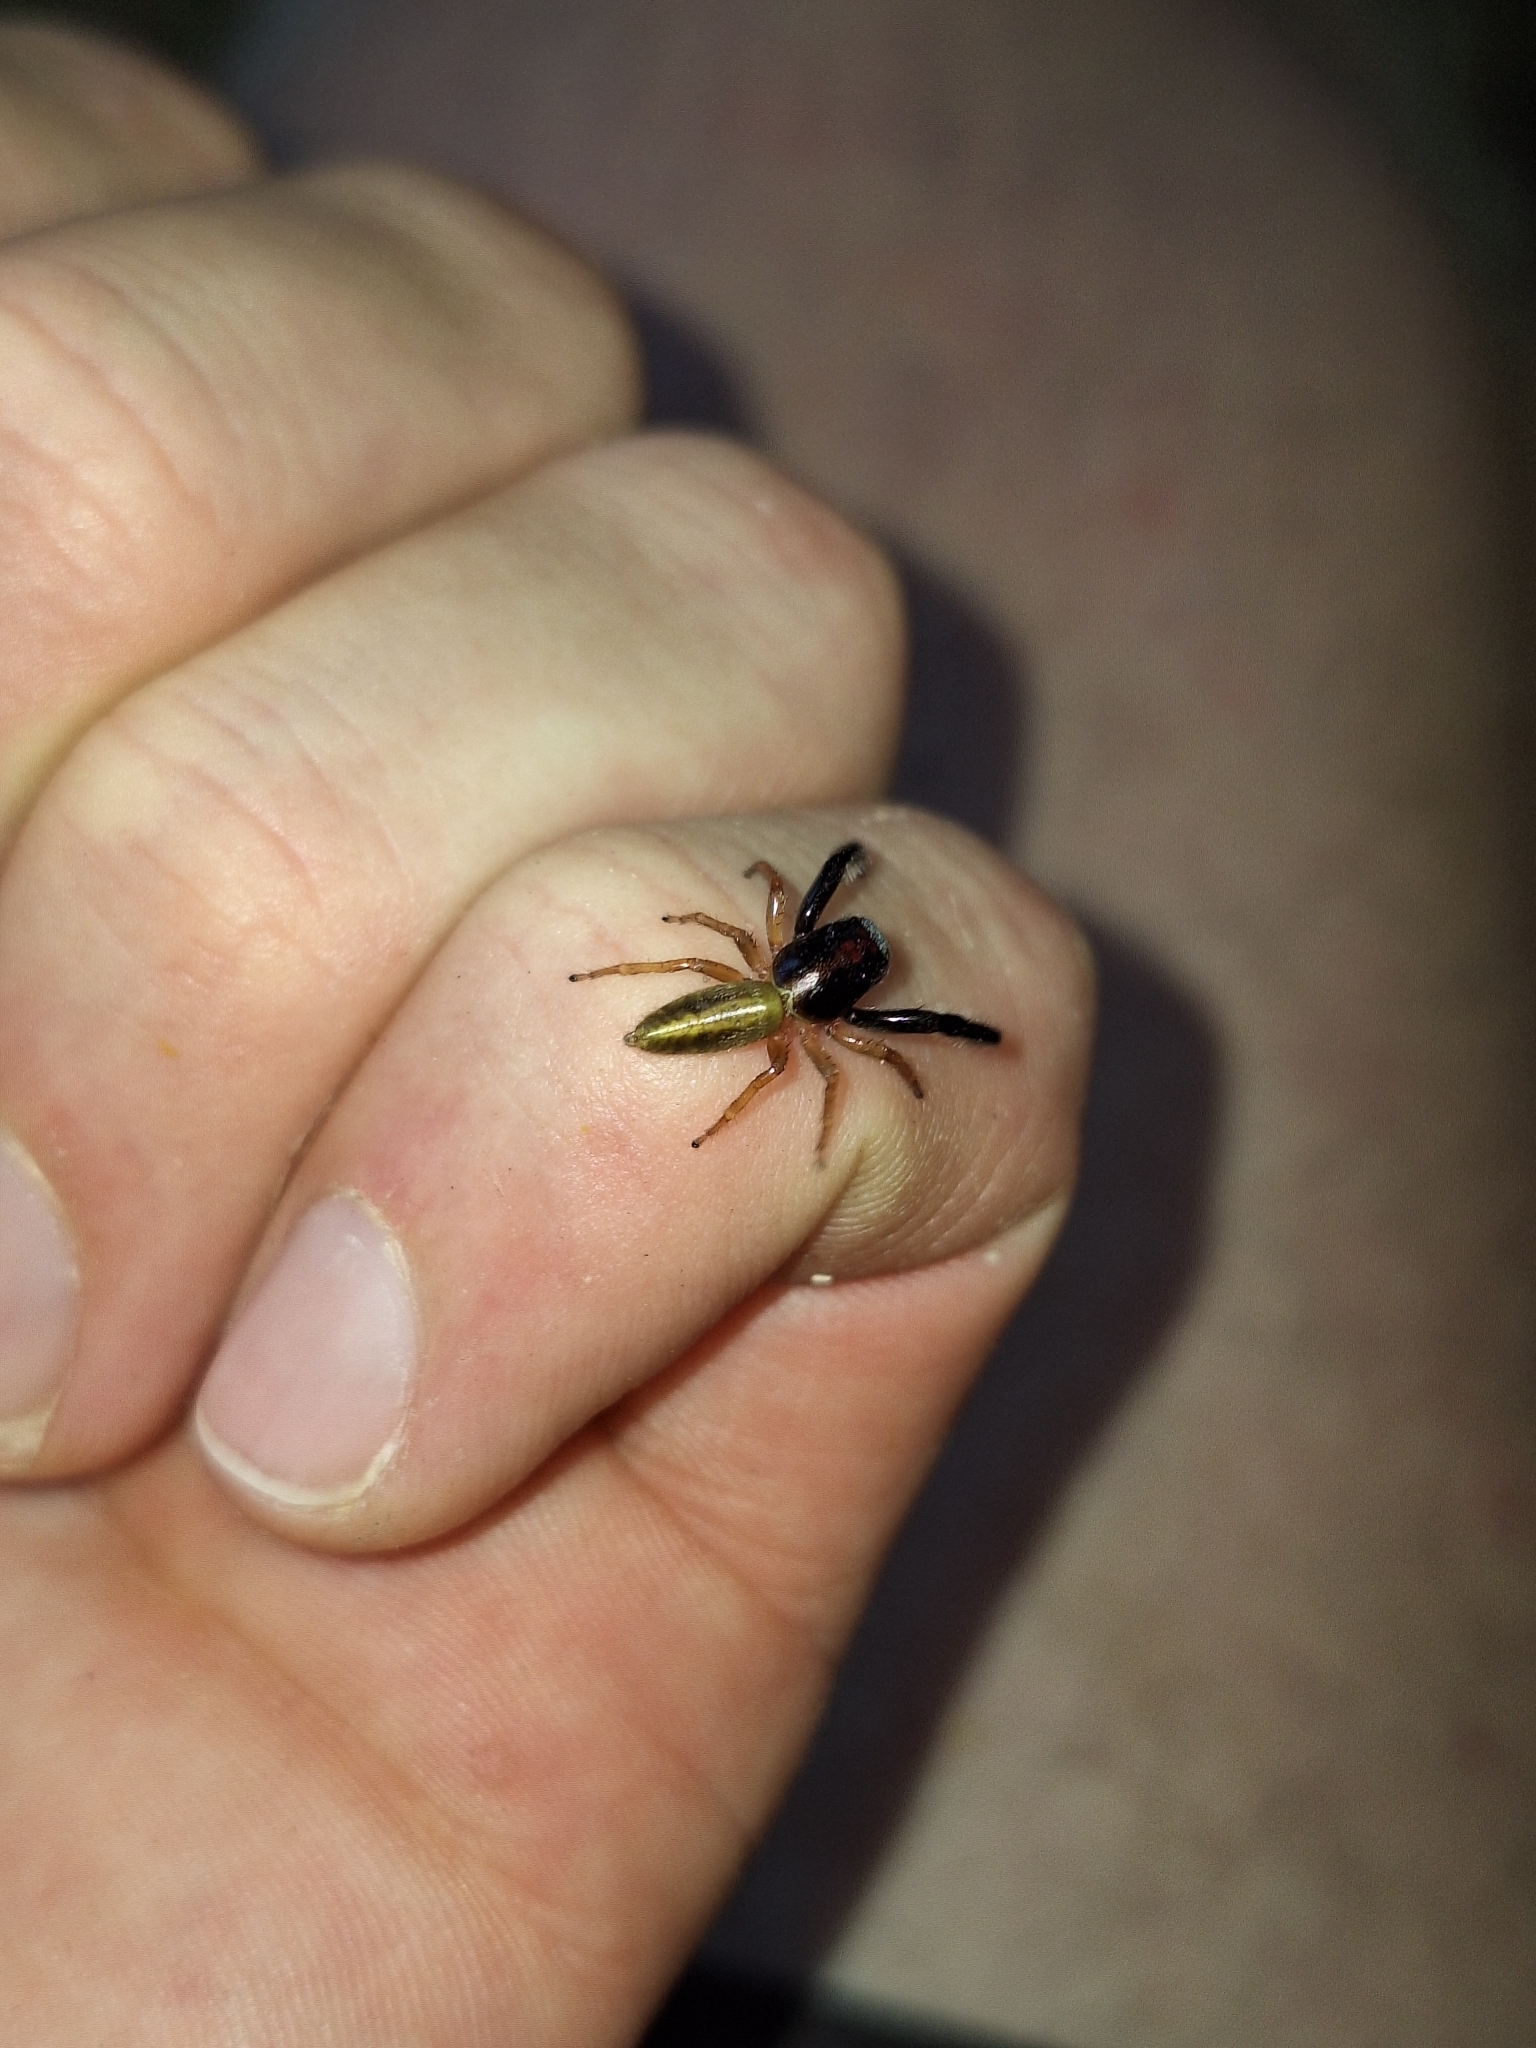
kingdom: Animalia
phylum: Arthropoda
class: Arachnida
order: Araneae
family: Salticidae
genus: Trite
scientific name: Trite planiceps
